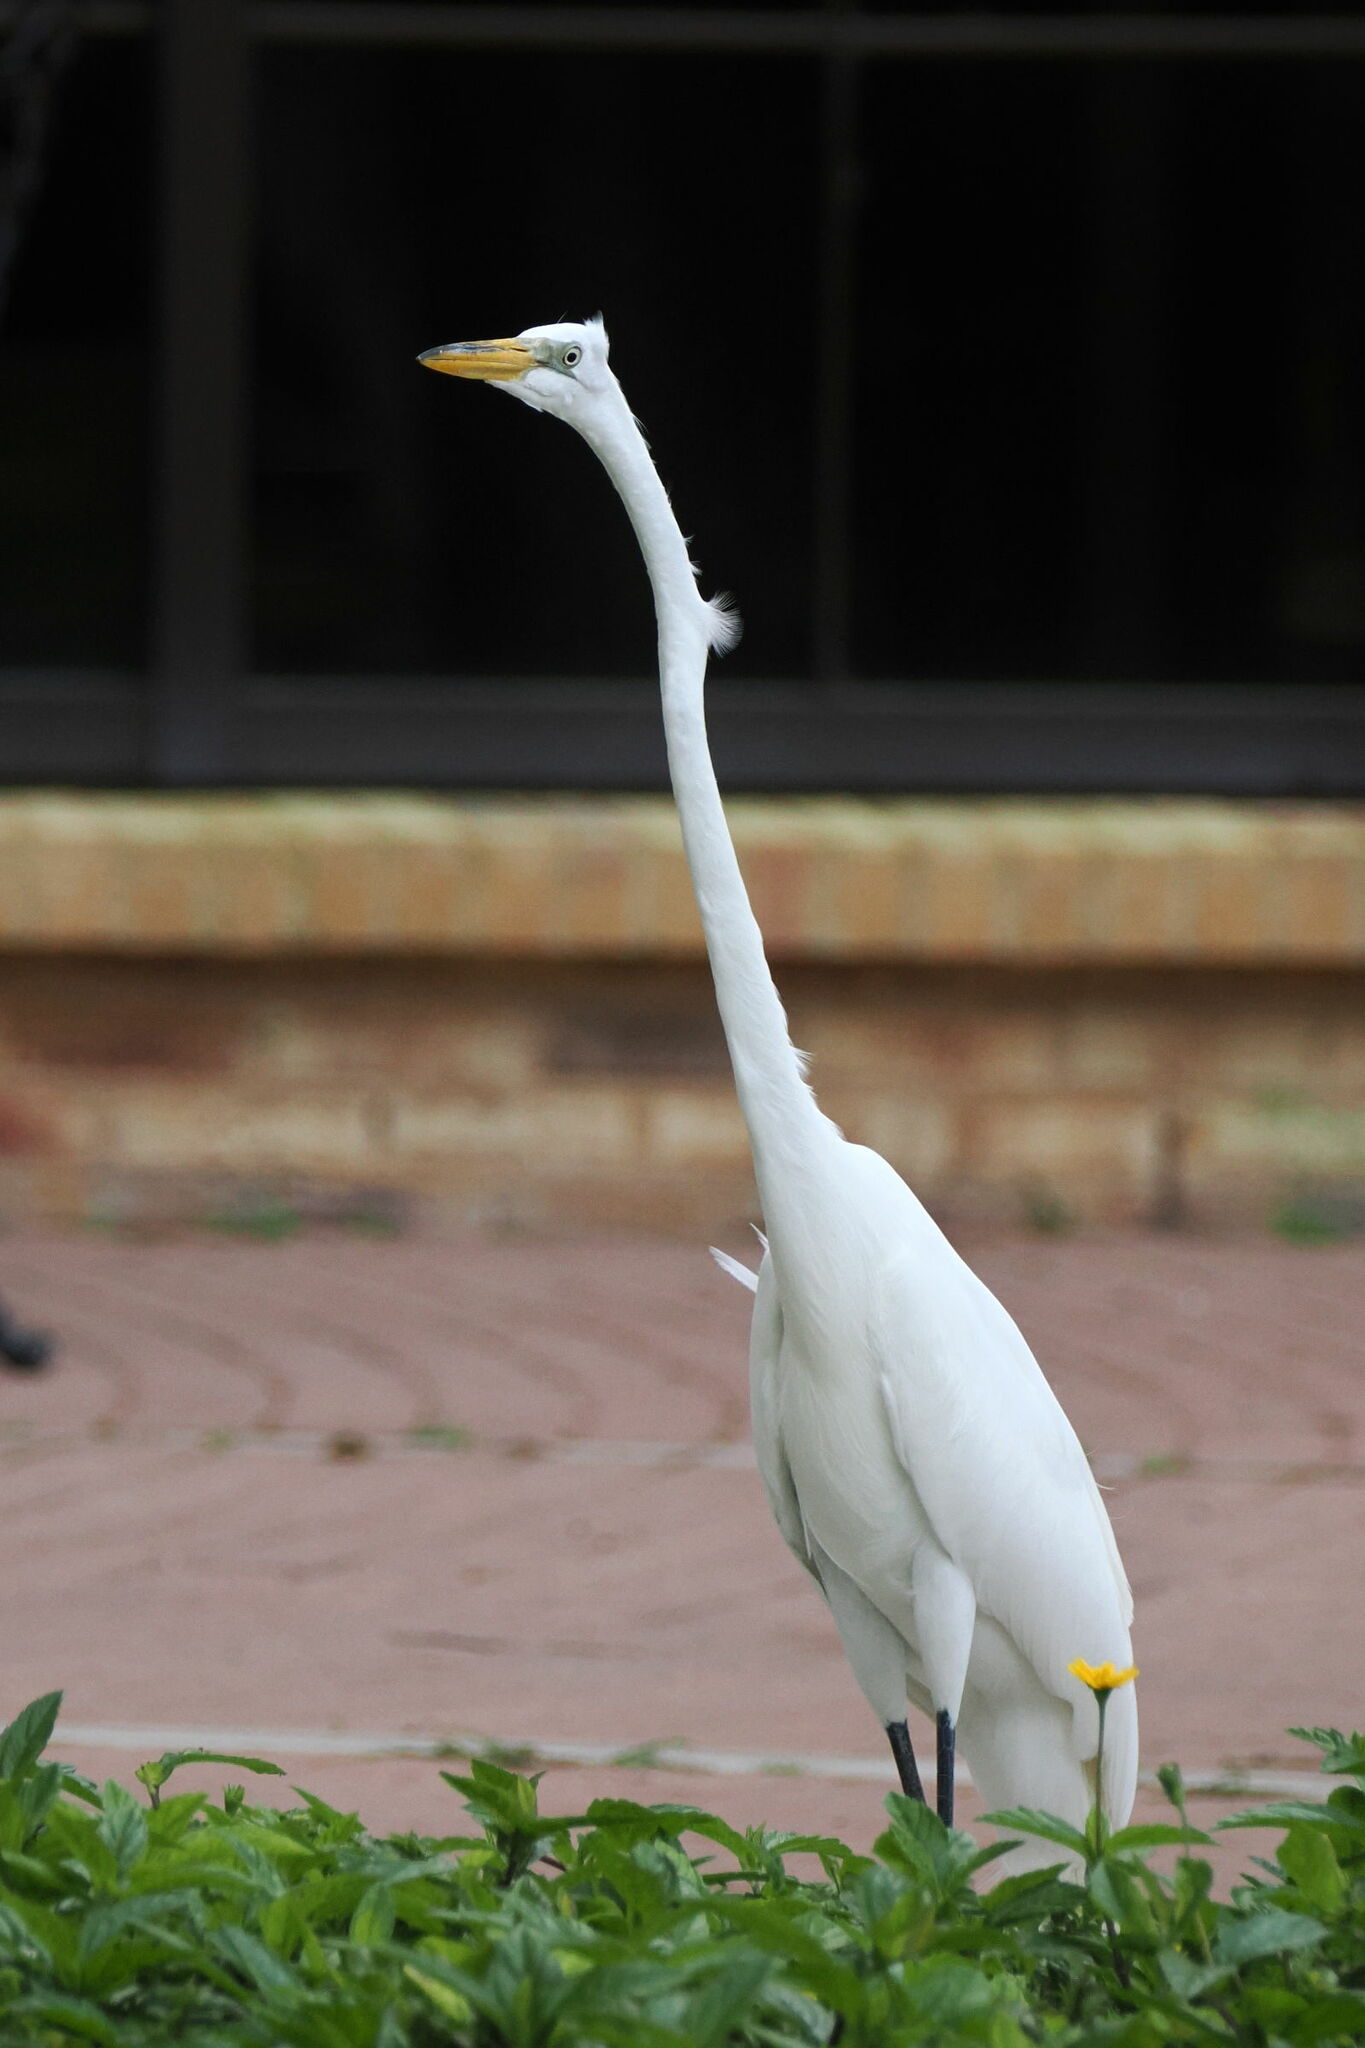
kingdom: Animalia
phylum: Chordata
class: Aves
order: Pelecaniformes
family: Ardeidae
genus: Ardea
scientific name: Ardea alba
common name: Great egret
